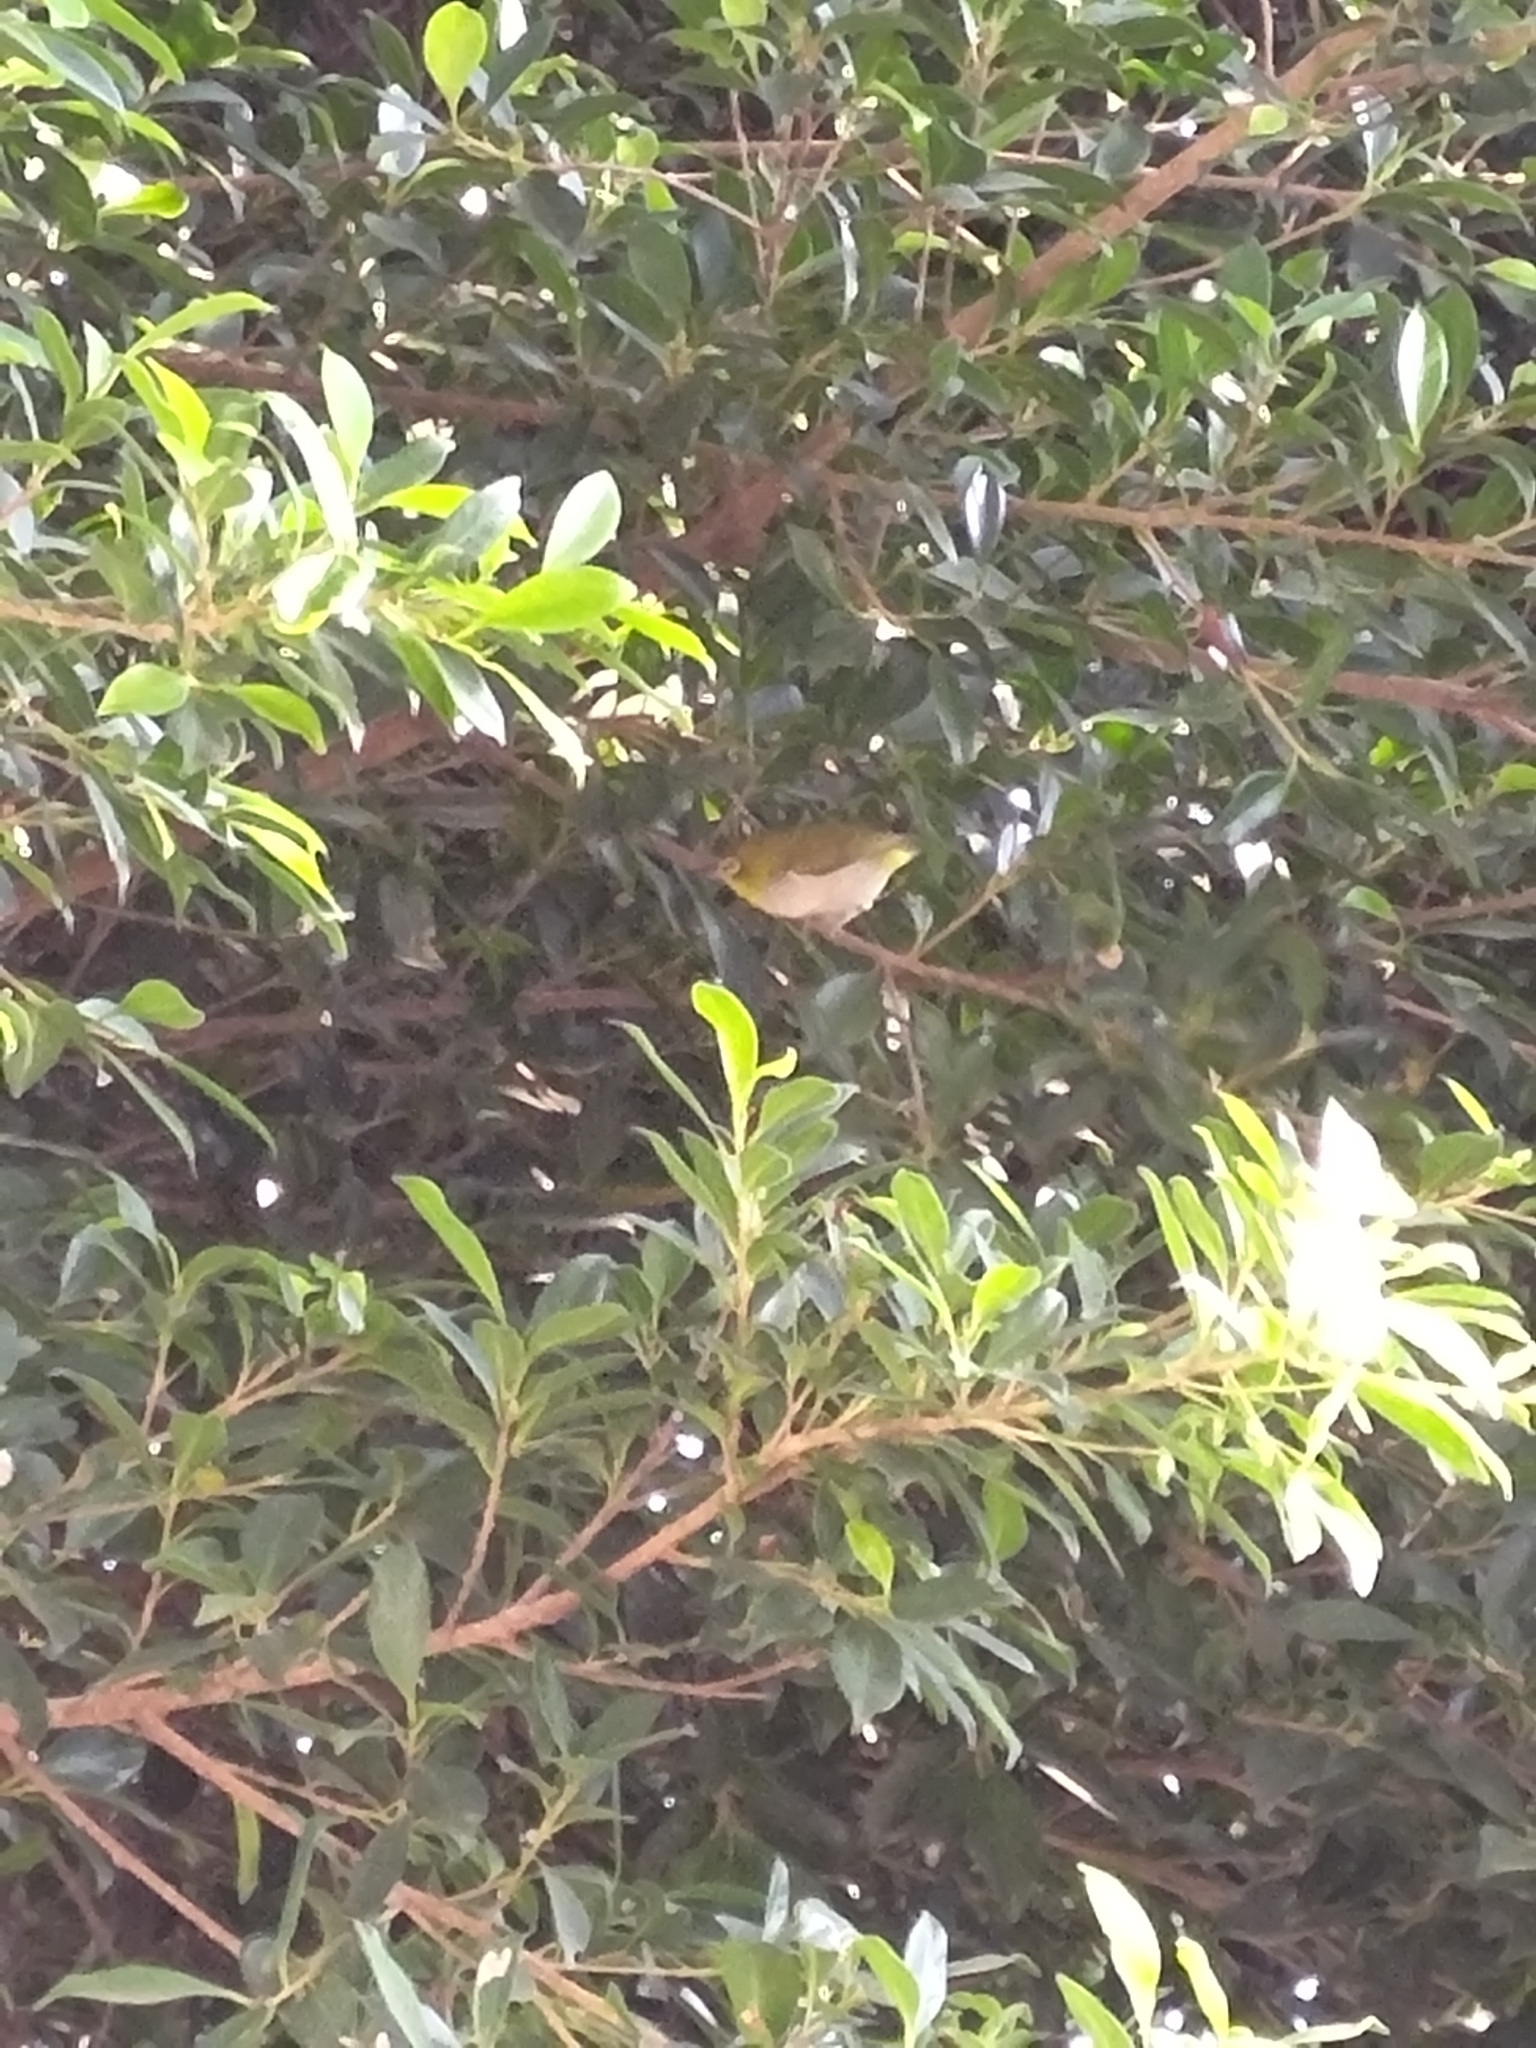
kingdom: Animalia
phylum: Chordata
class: Aves
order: Passeriformes
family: Zosteropidae
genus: Zosterops
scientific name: Zosterops simplex
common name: Swinhoe's white-eye
